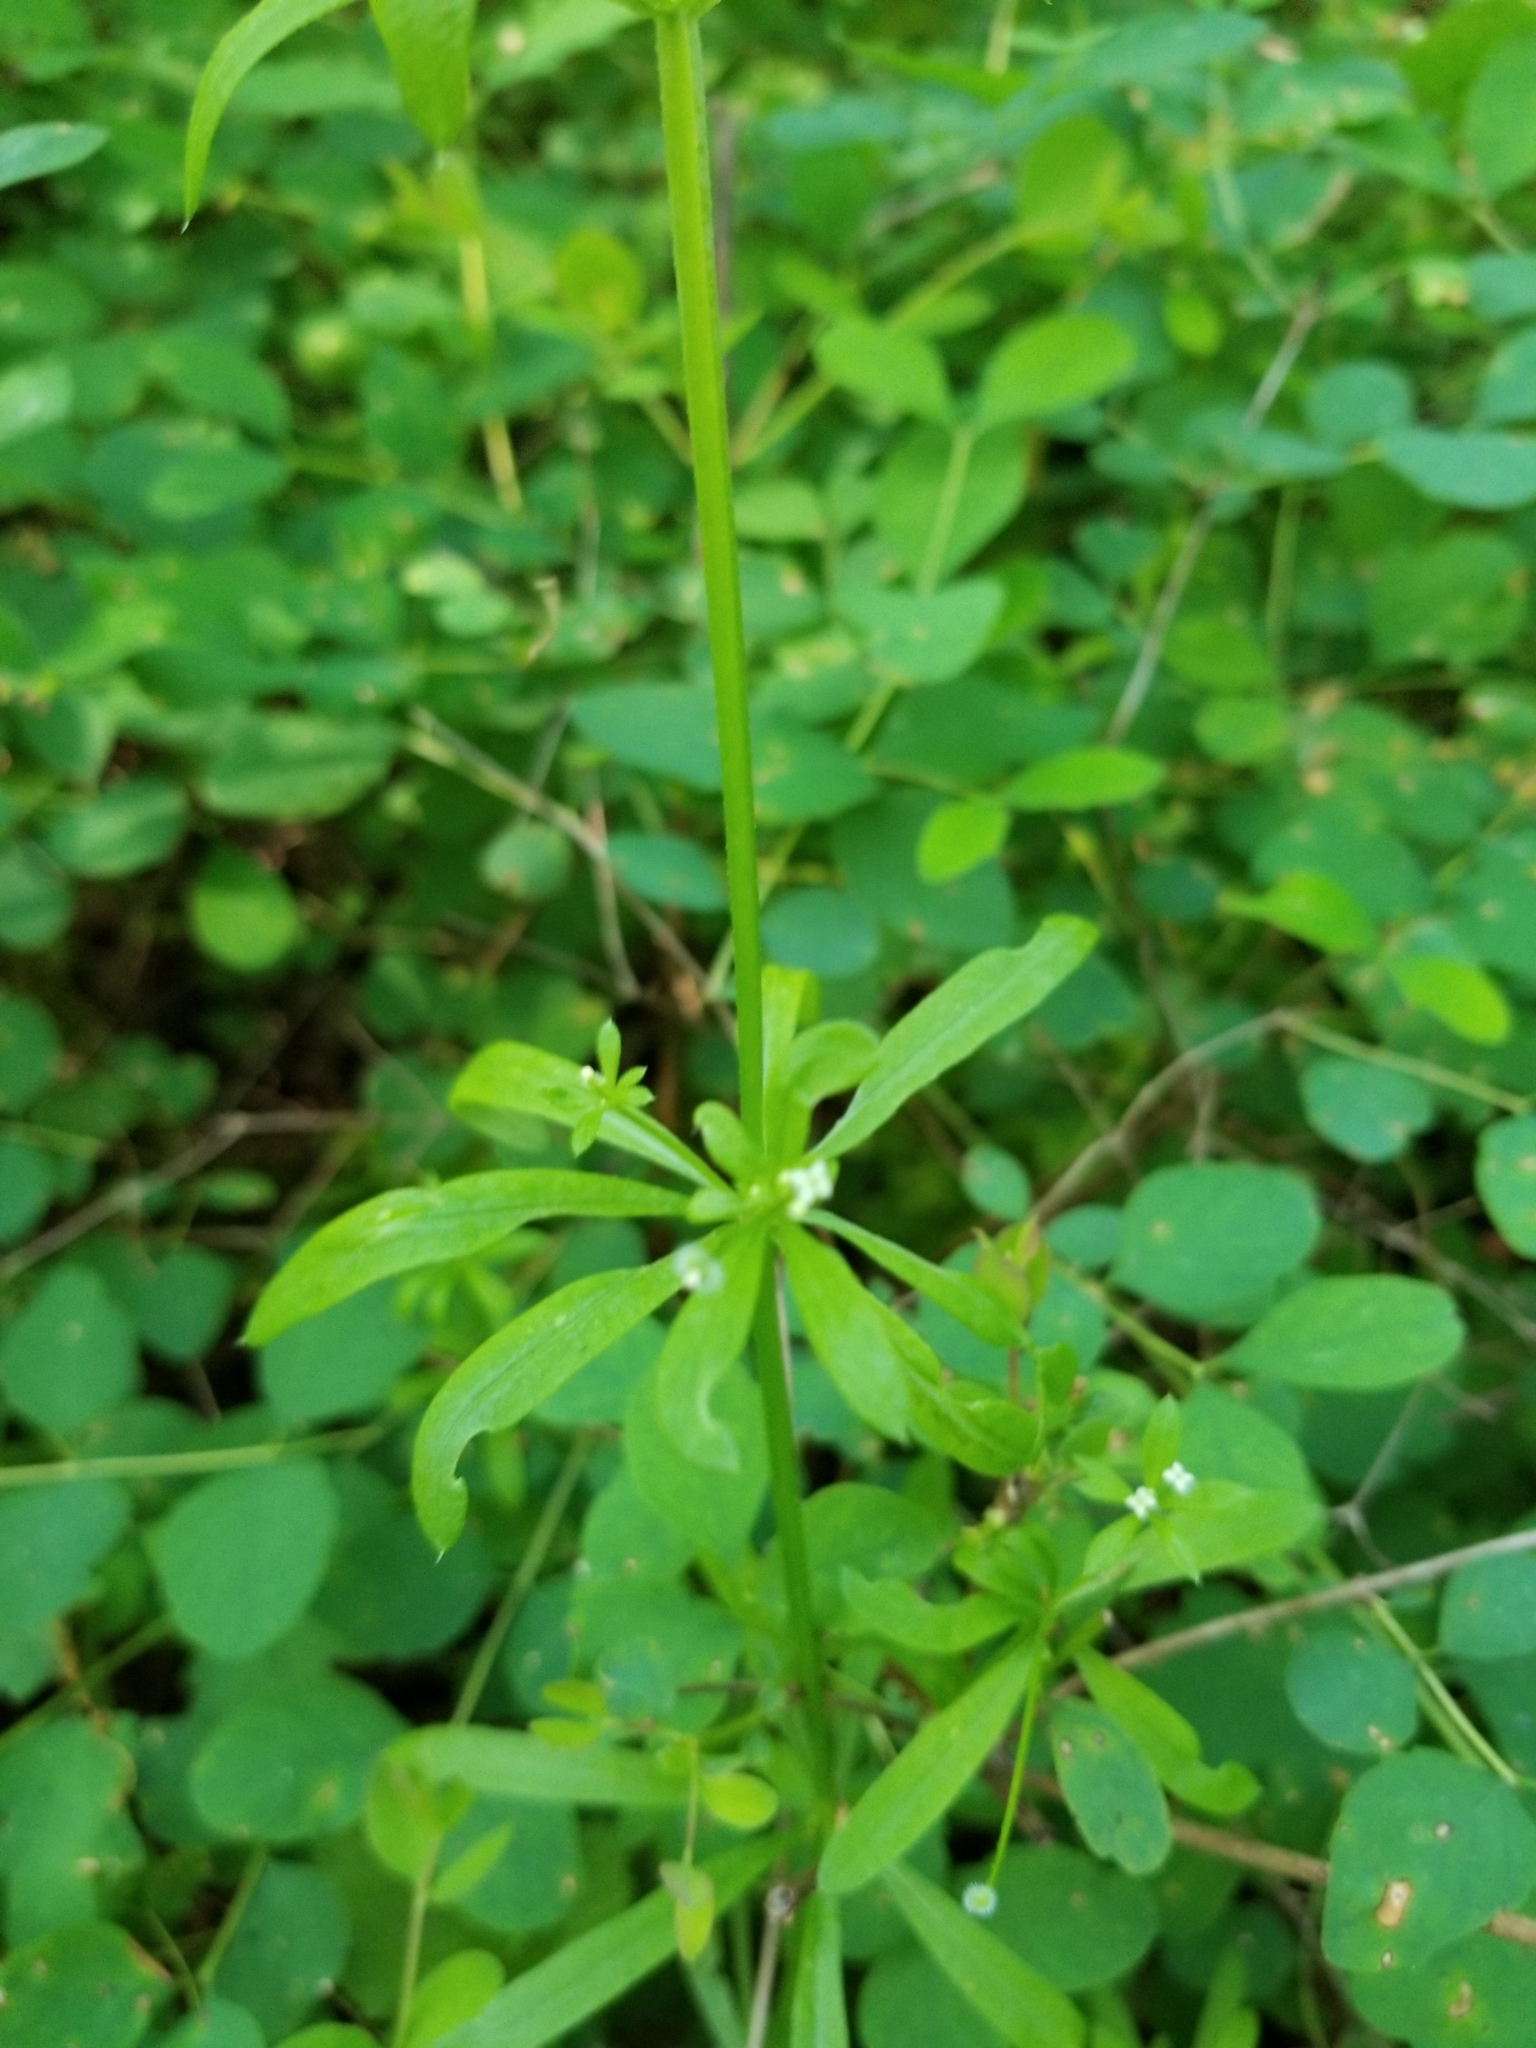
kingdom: Plantae
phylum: Tracheophyta
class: Magnoliopsida
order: Gentianales
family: Rubiaceae
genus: Galium
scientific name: Galium aparine
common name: Cleavers
